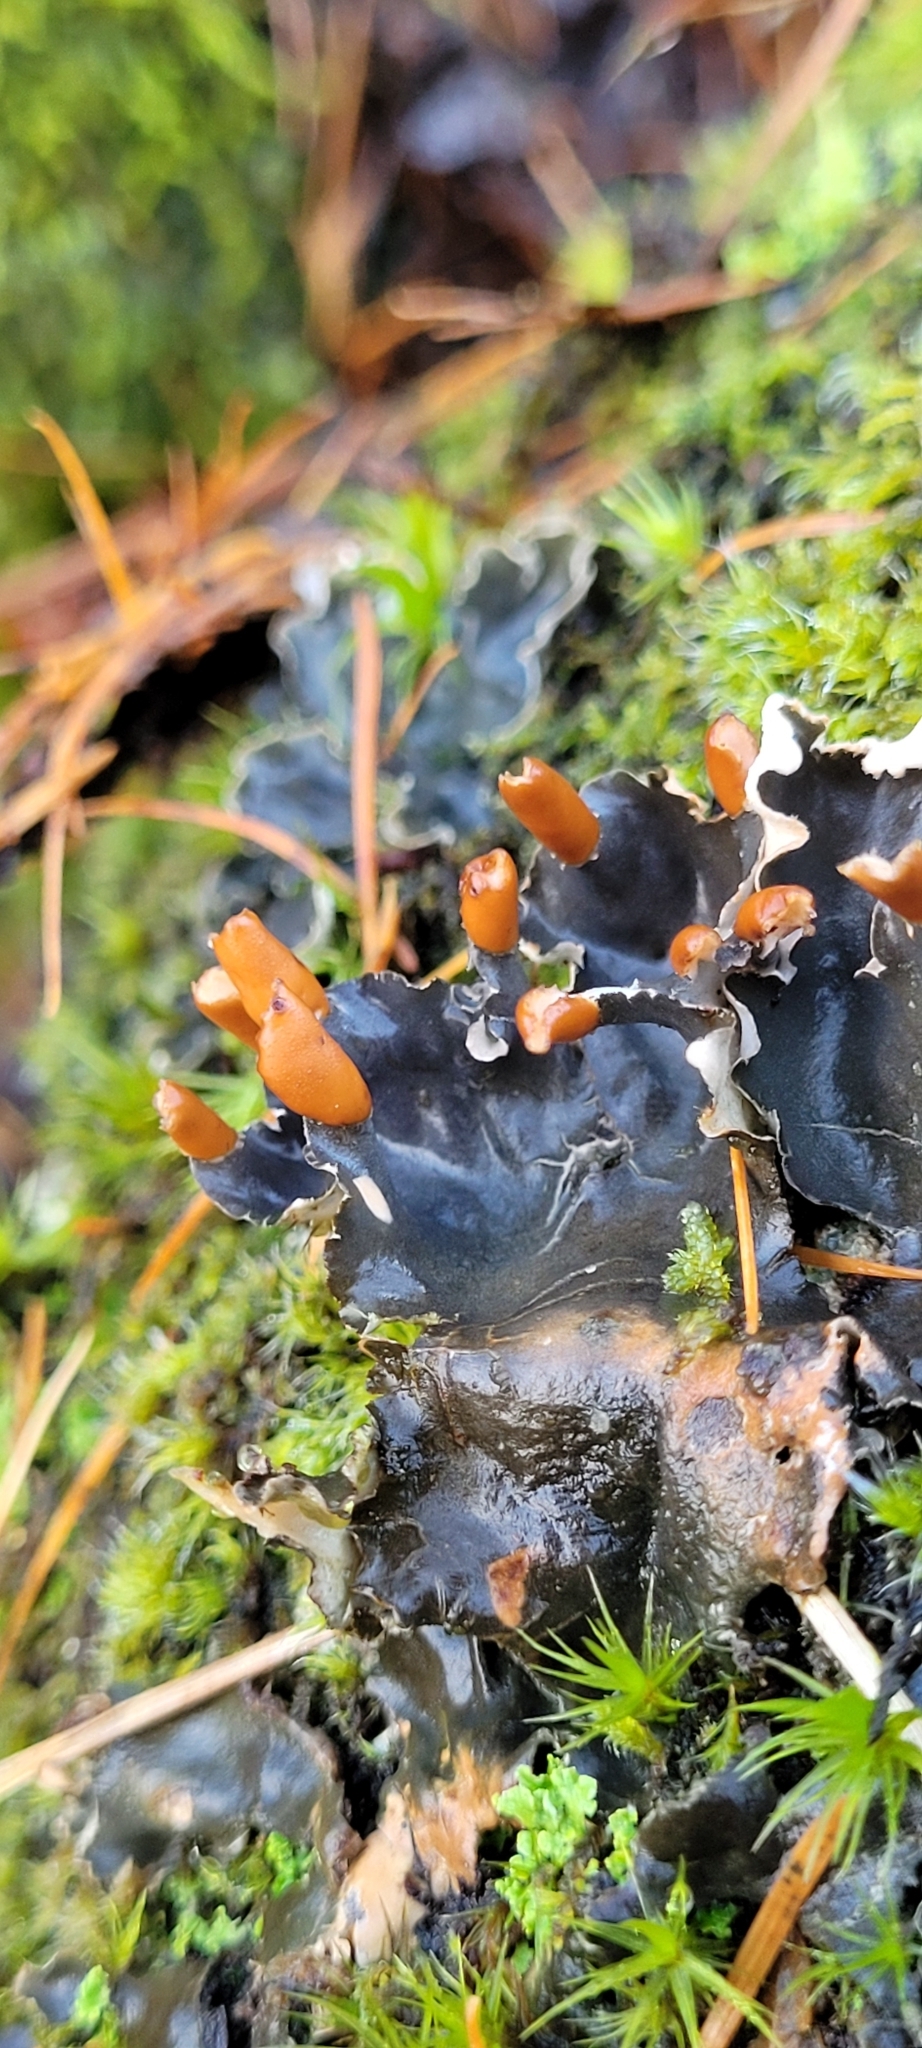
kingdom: Fungi
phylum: Ascomycota
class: Lecanoromycetes
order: Peltigerales
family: Peltigeraceae
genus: Peltigera
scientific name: Peltigera hymenina
